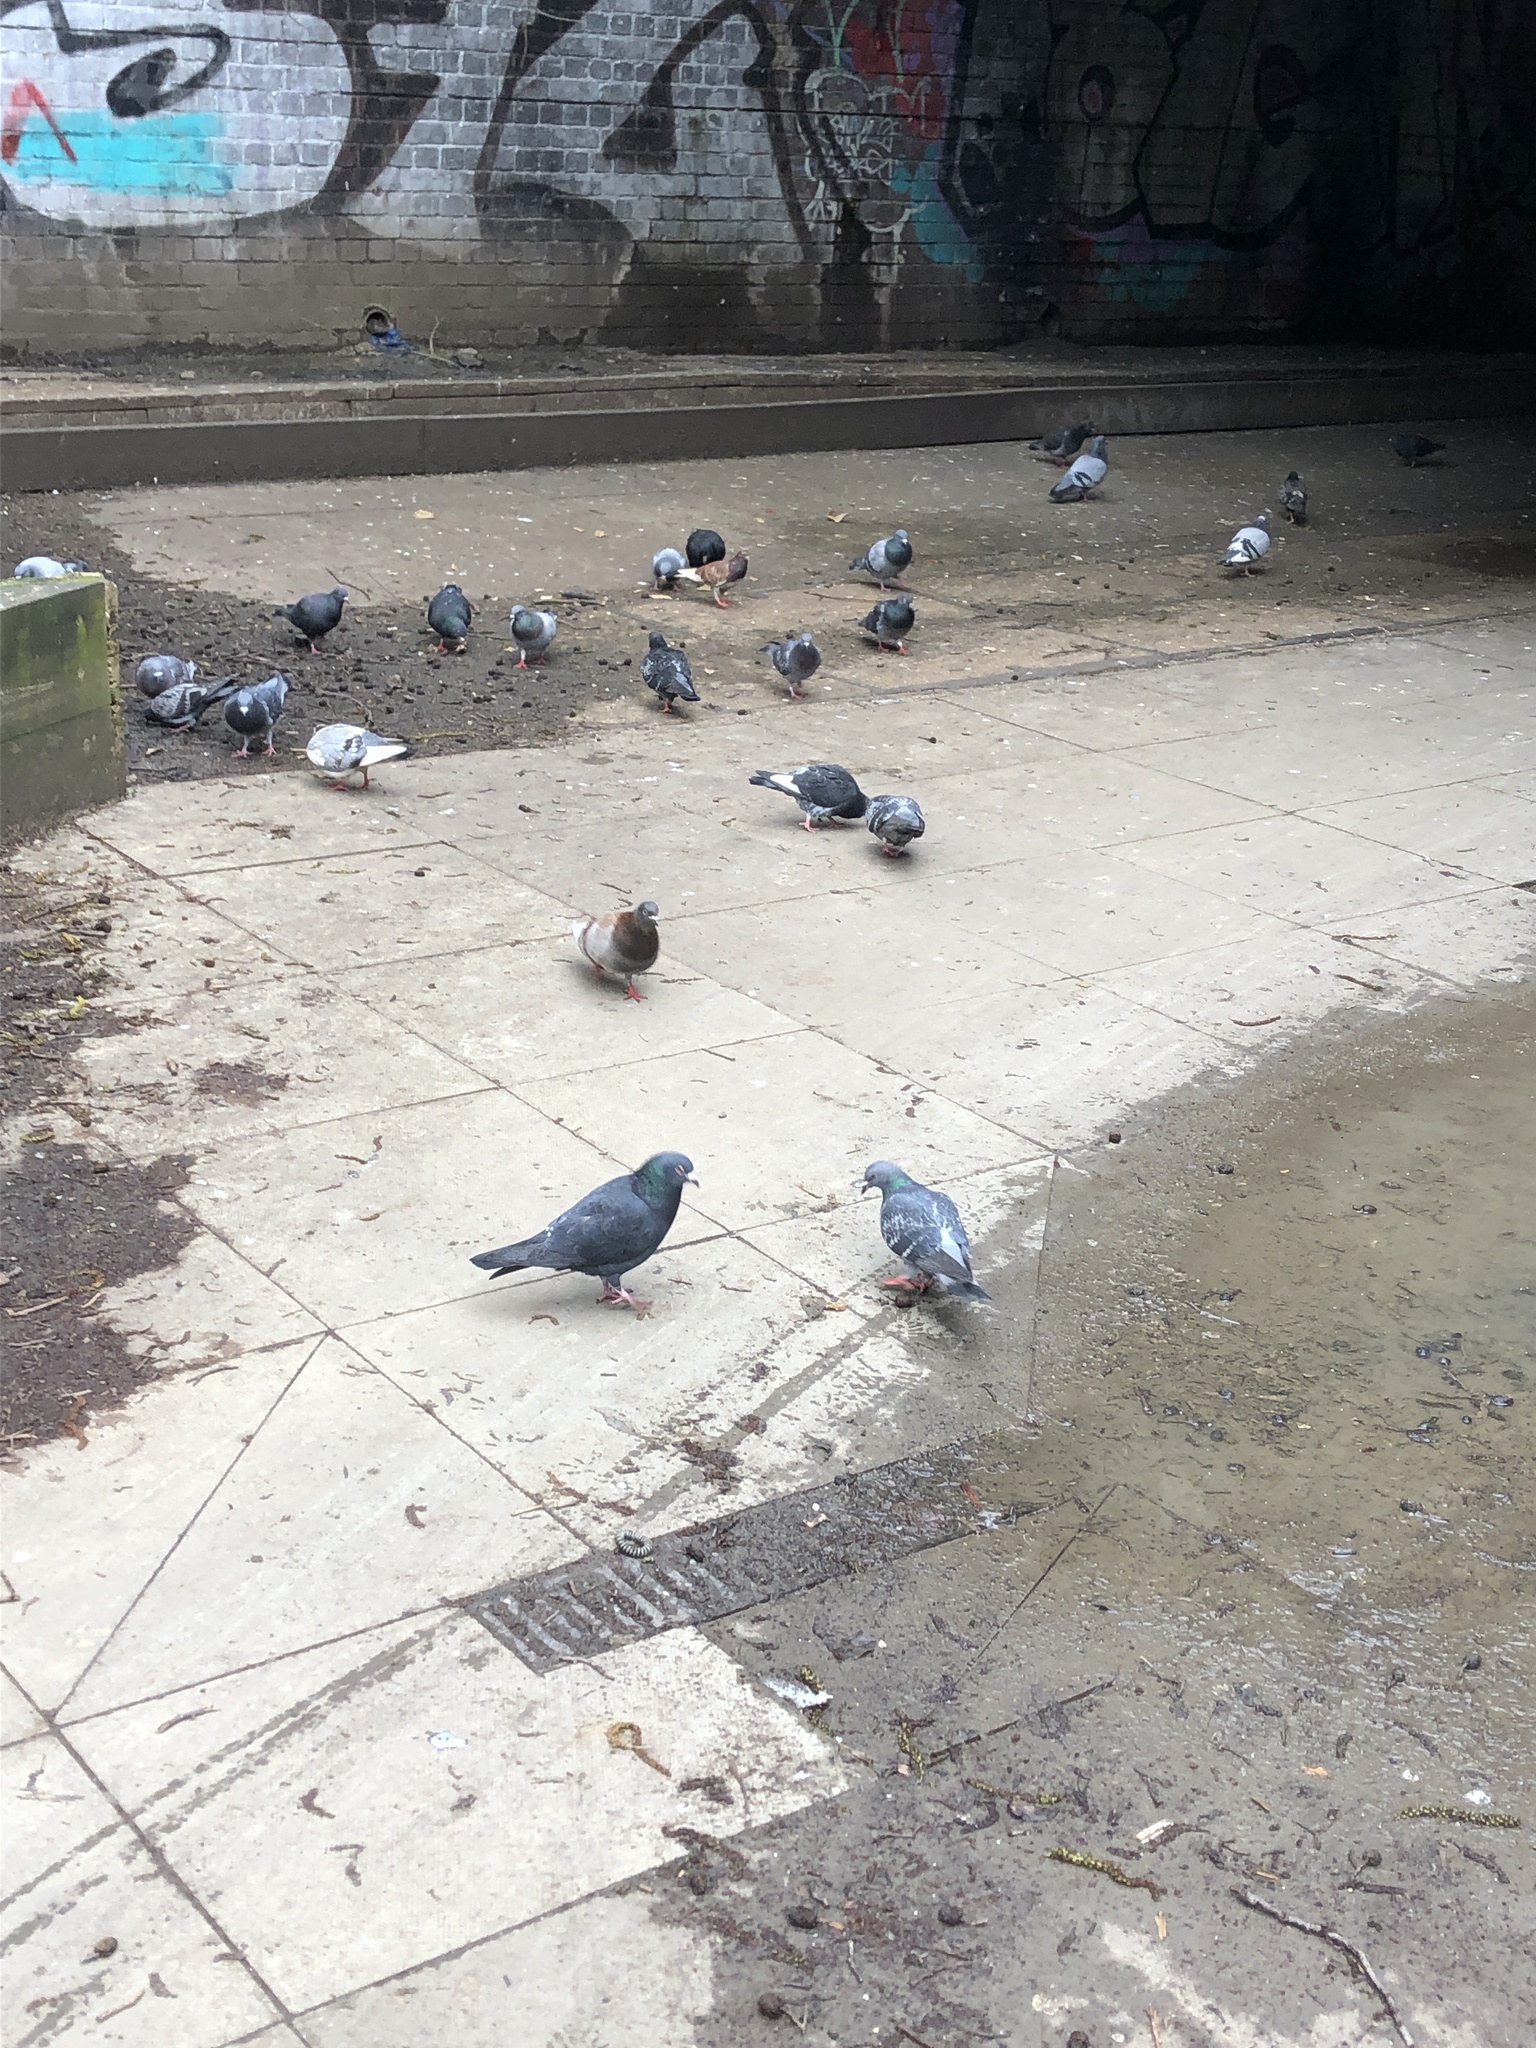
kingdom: Animalia
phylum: Chordata
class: Aves
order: Columbiformes
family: Columbidae
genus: Columba
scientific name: Columba livia
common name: Rock pigeon
